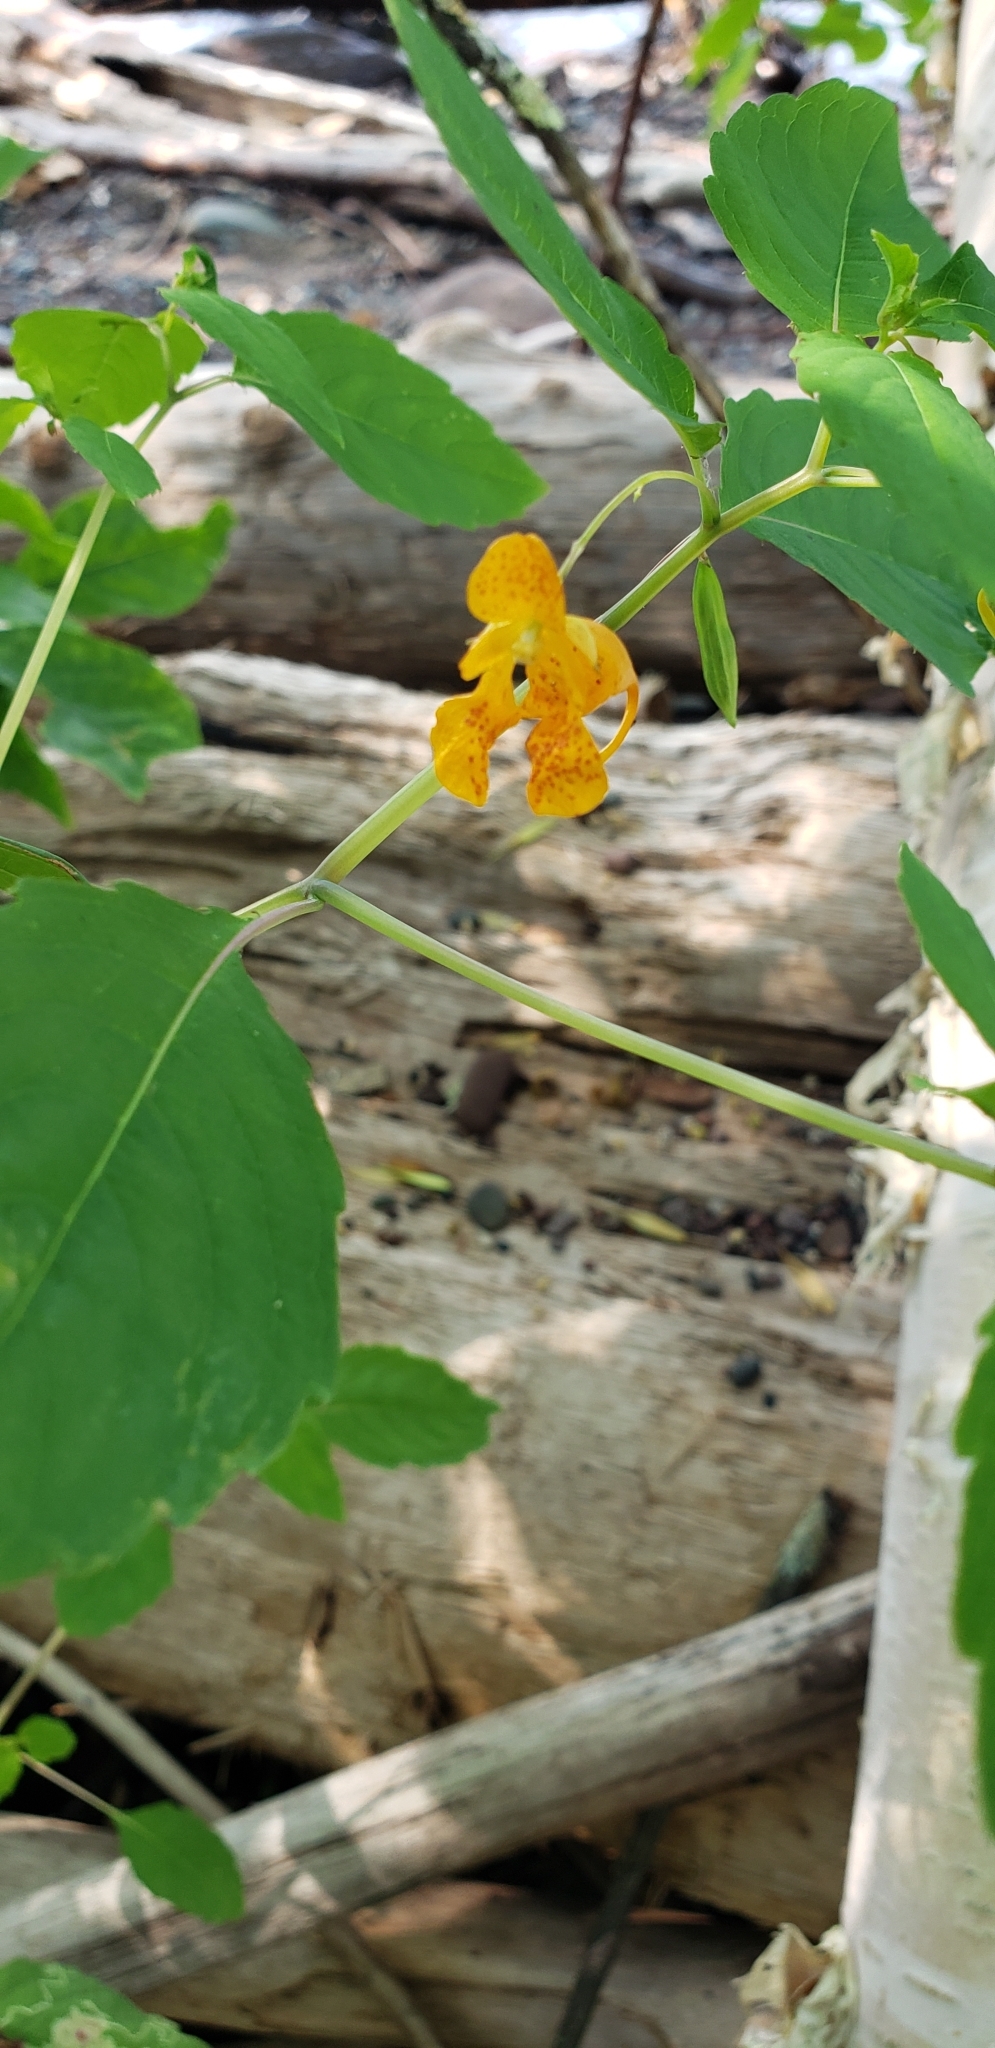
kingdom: Plantae
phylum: Tracheophyta
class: Magnoliopsida
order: Ericales
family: Balsaminaceae
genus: Impatiens
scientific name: Impatiens capensis
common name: Orange balsam
